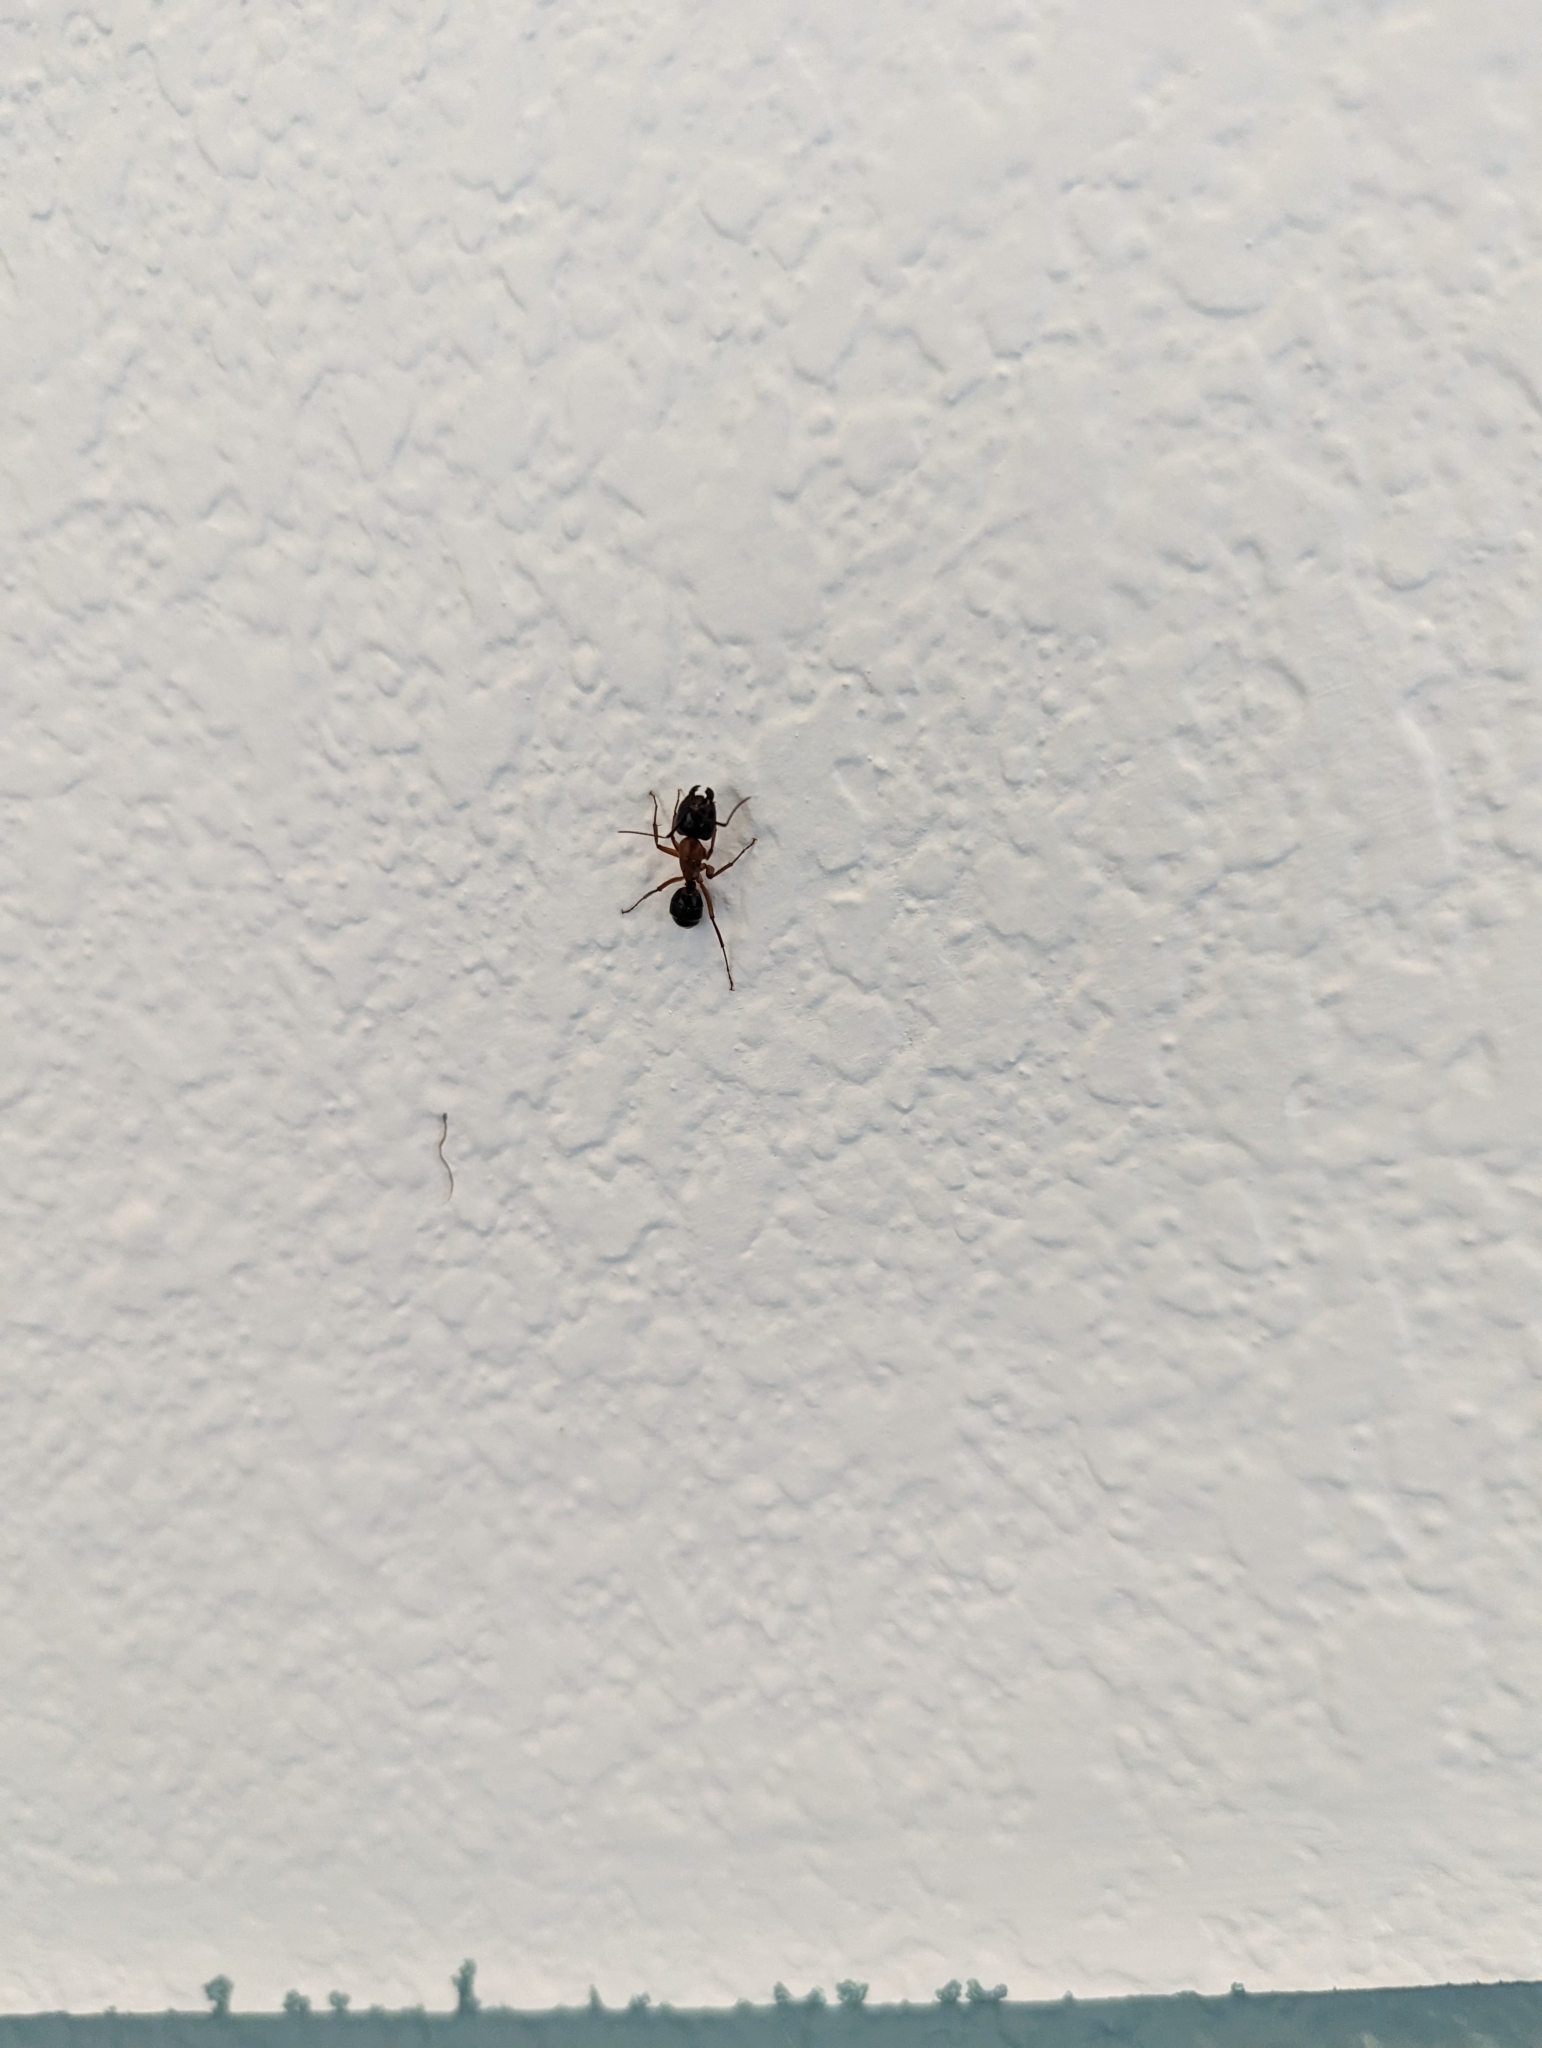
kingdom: Animalia
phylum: Arthropoda
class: Insecta
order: Hymenoptera
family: Formicidae
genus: Camponotus
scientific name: Camponotus texanus
